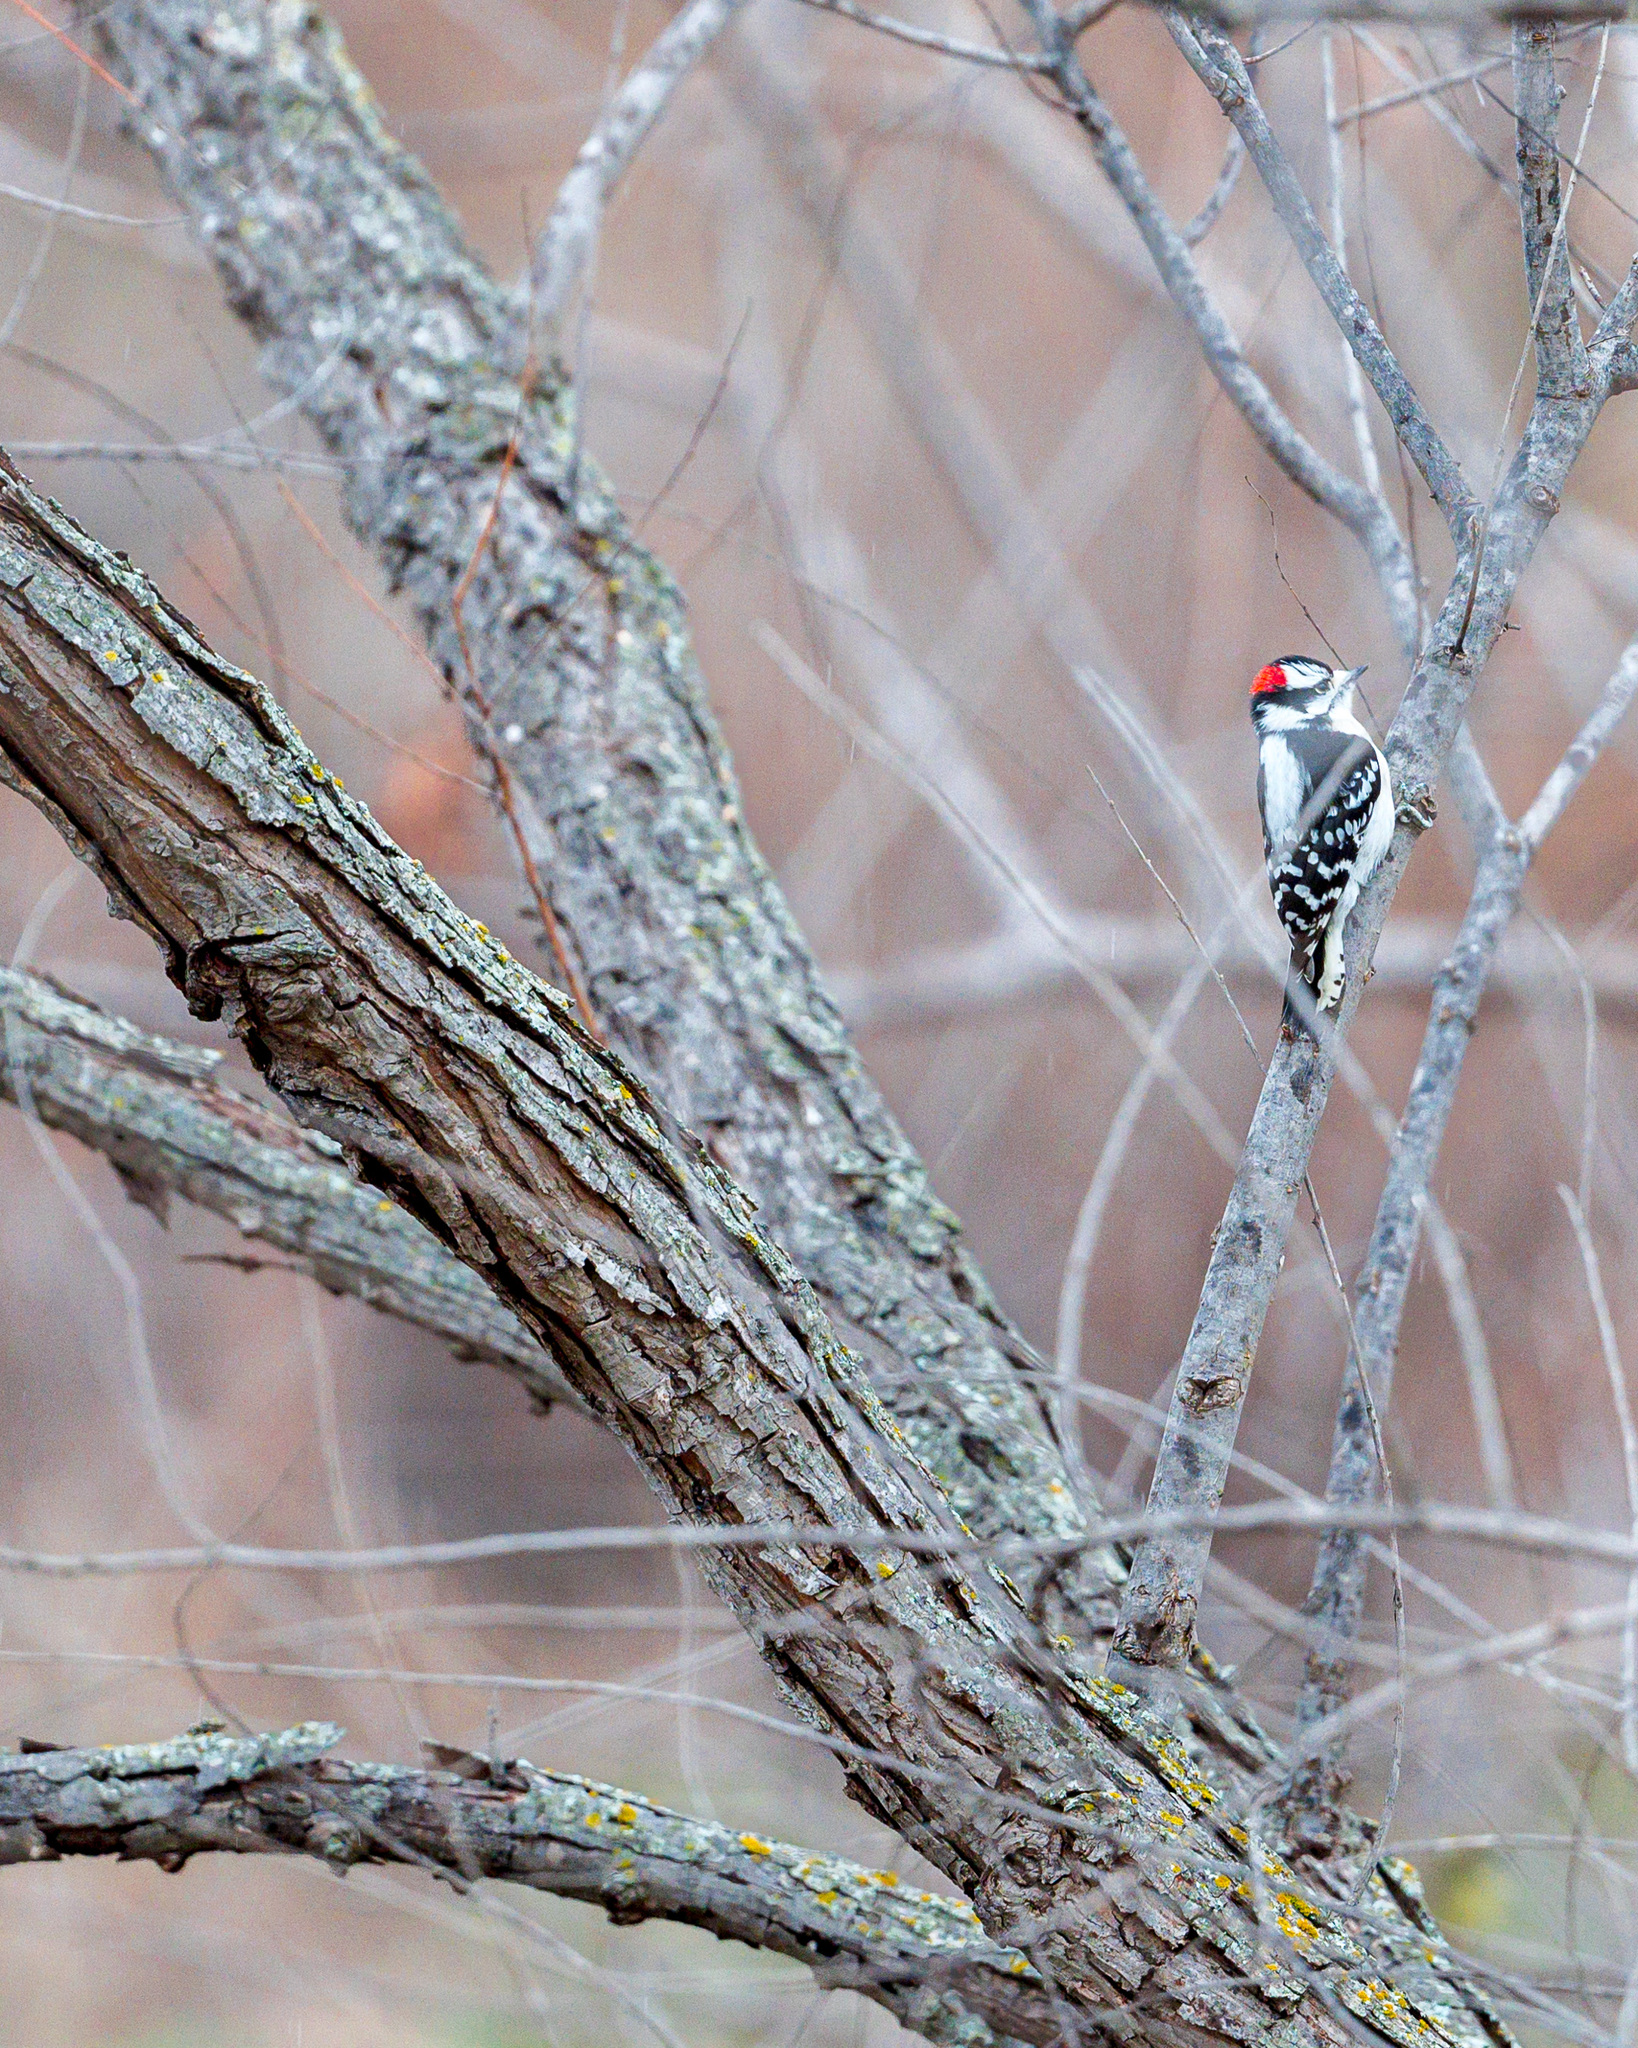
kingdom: Animalia
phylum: Chordata
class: Aves
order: Piciformes
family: Picidae
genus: Dryobates
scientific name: Dryobates pubescens
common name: Downy woodpecker
